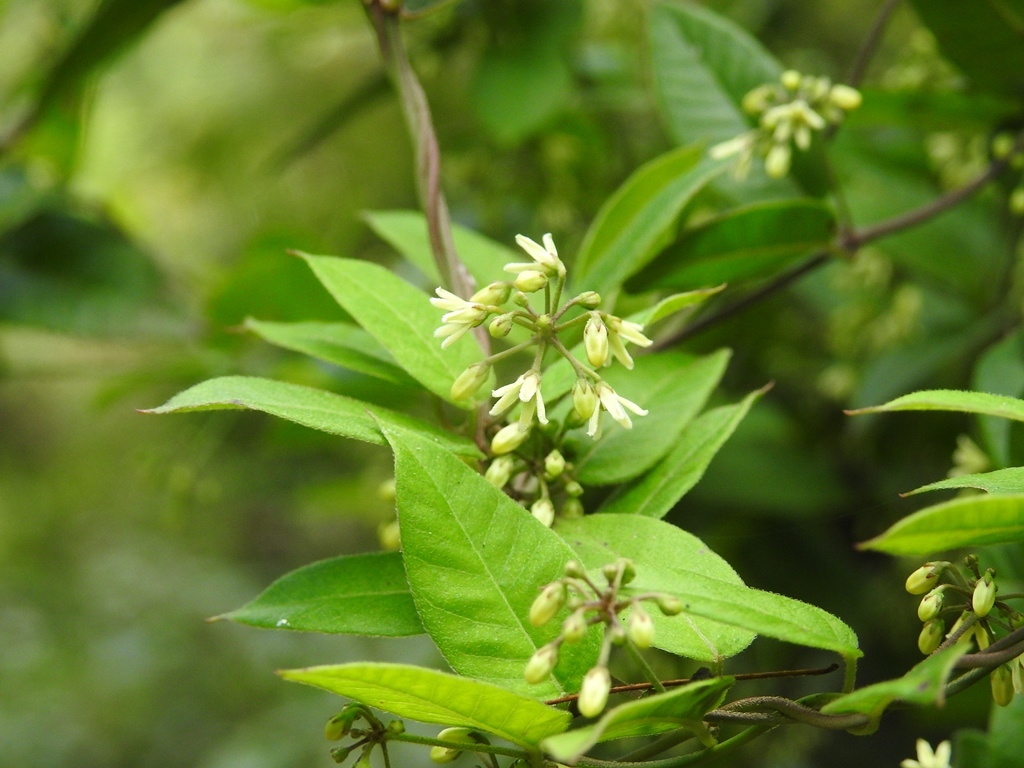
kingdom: Plantae
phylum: Tracheophyta
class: Magnoliopsida
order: Gentianales
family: Apocynaceae
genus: Metastelma
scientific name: Metastelma californicum
